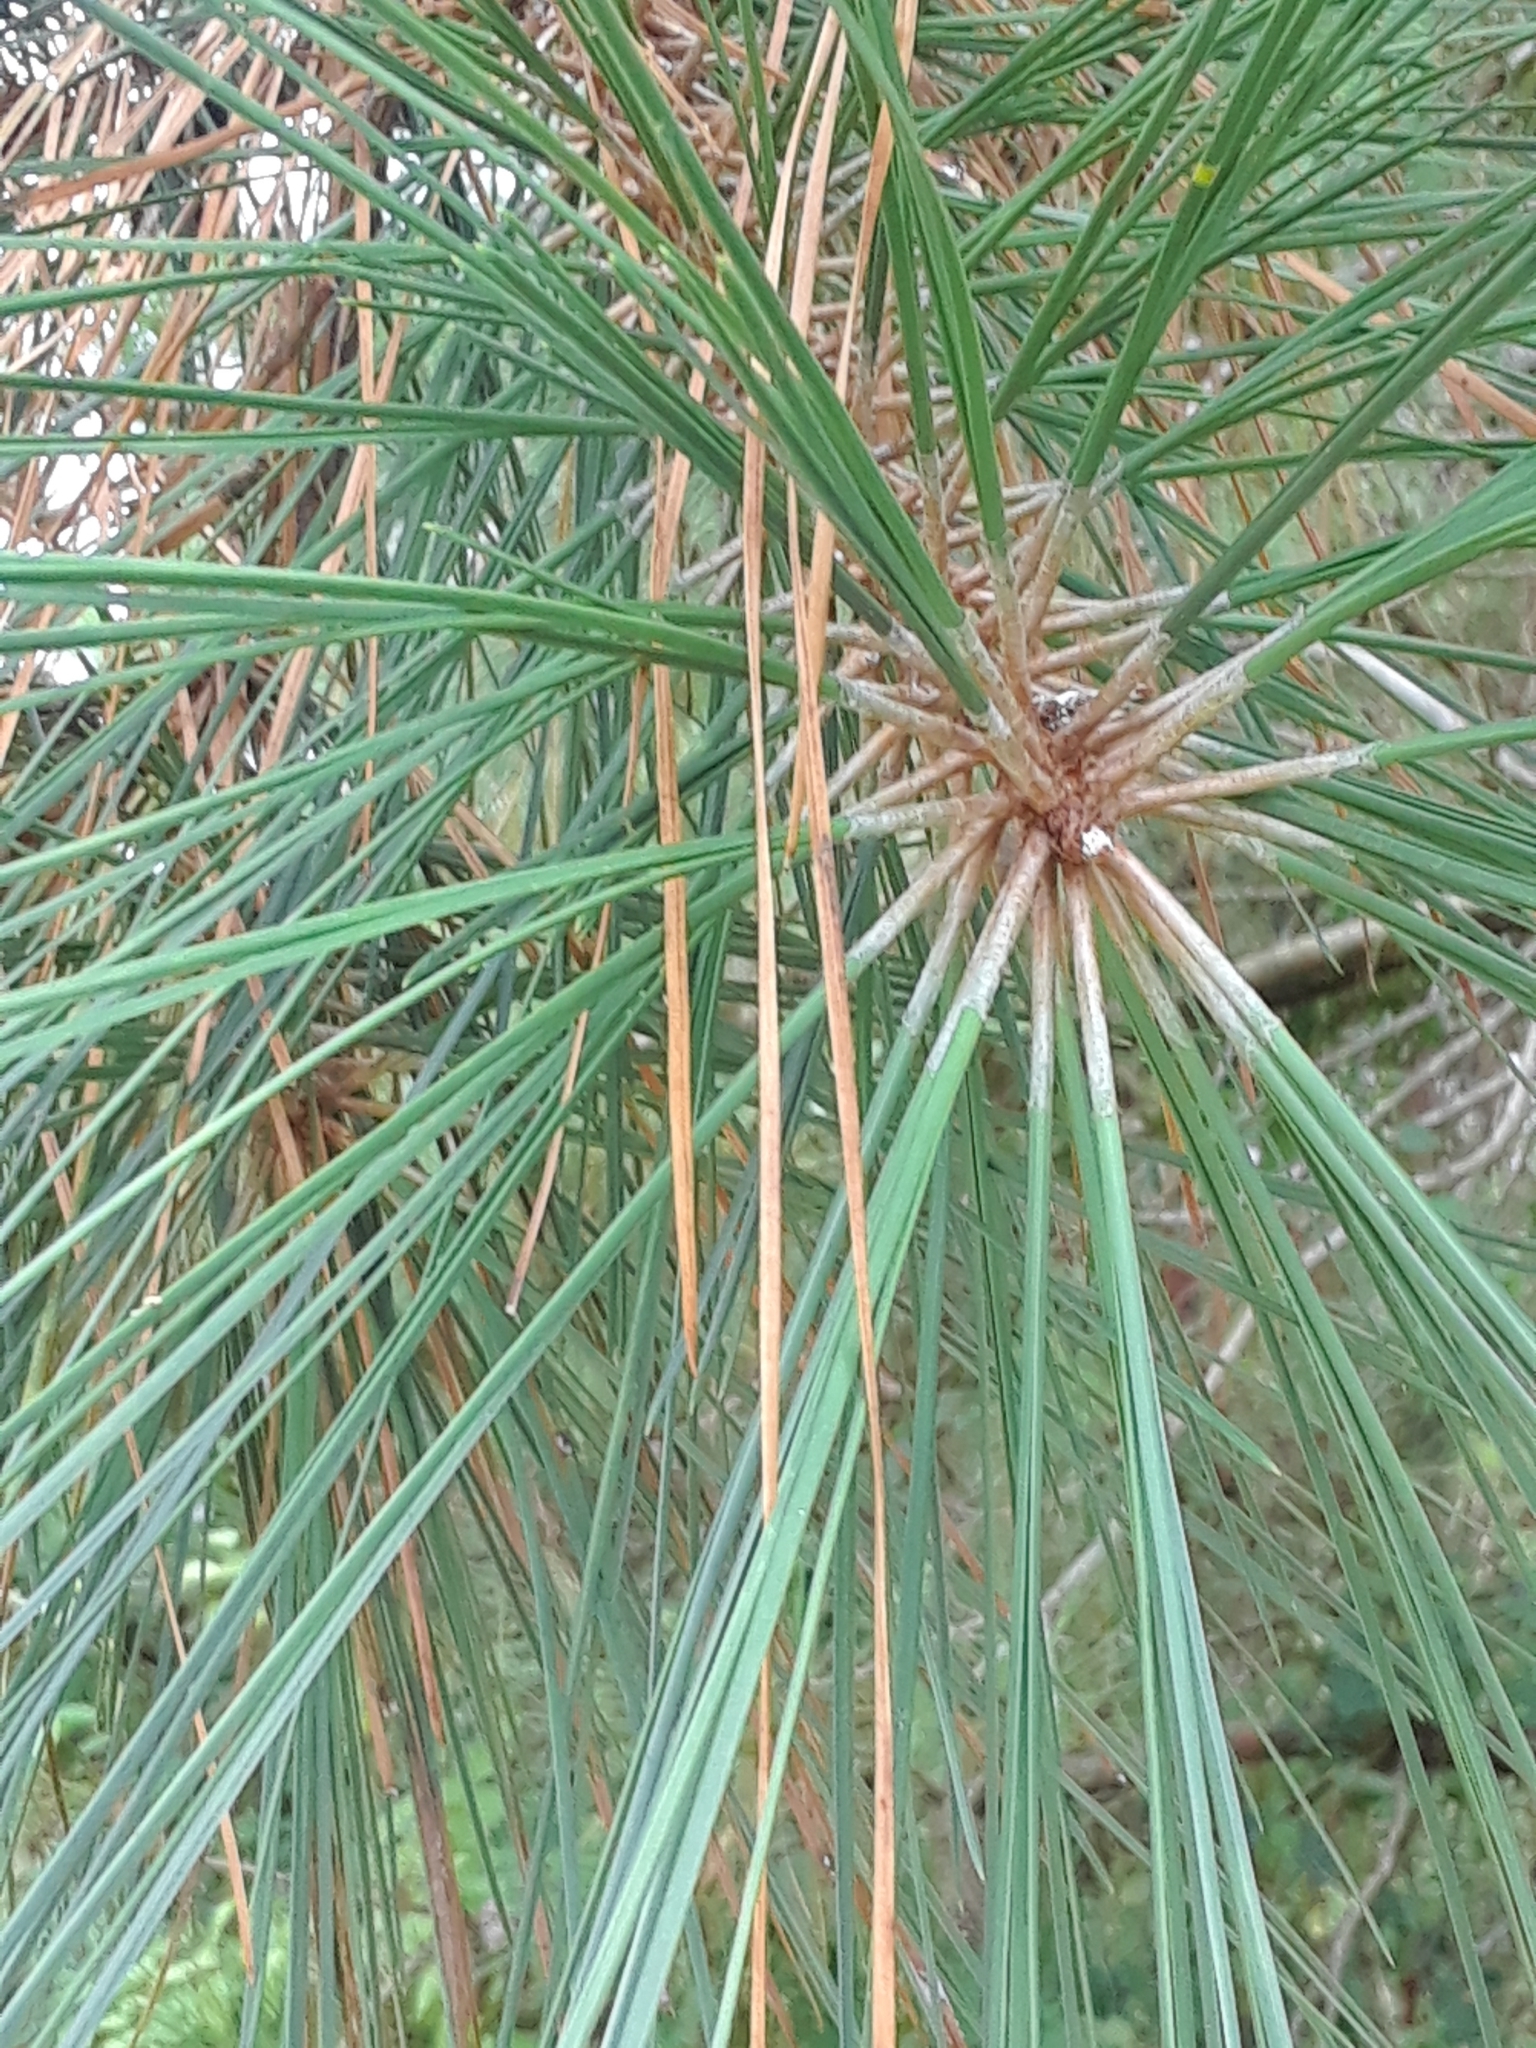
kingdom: Plantae
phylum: Tracheophyta
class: Pinopsida
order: Pinales
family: Pinaceae
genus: Pinus
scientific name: Pinus taeda
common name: Loblolly pine
